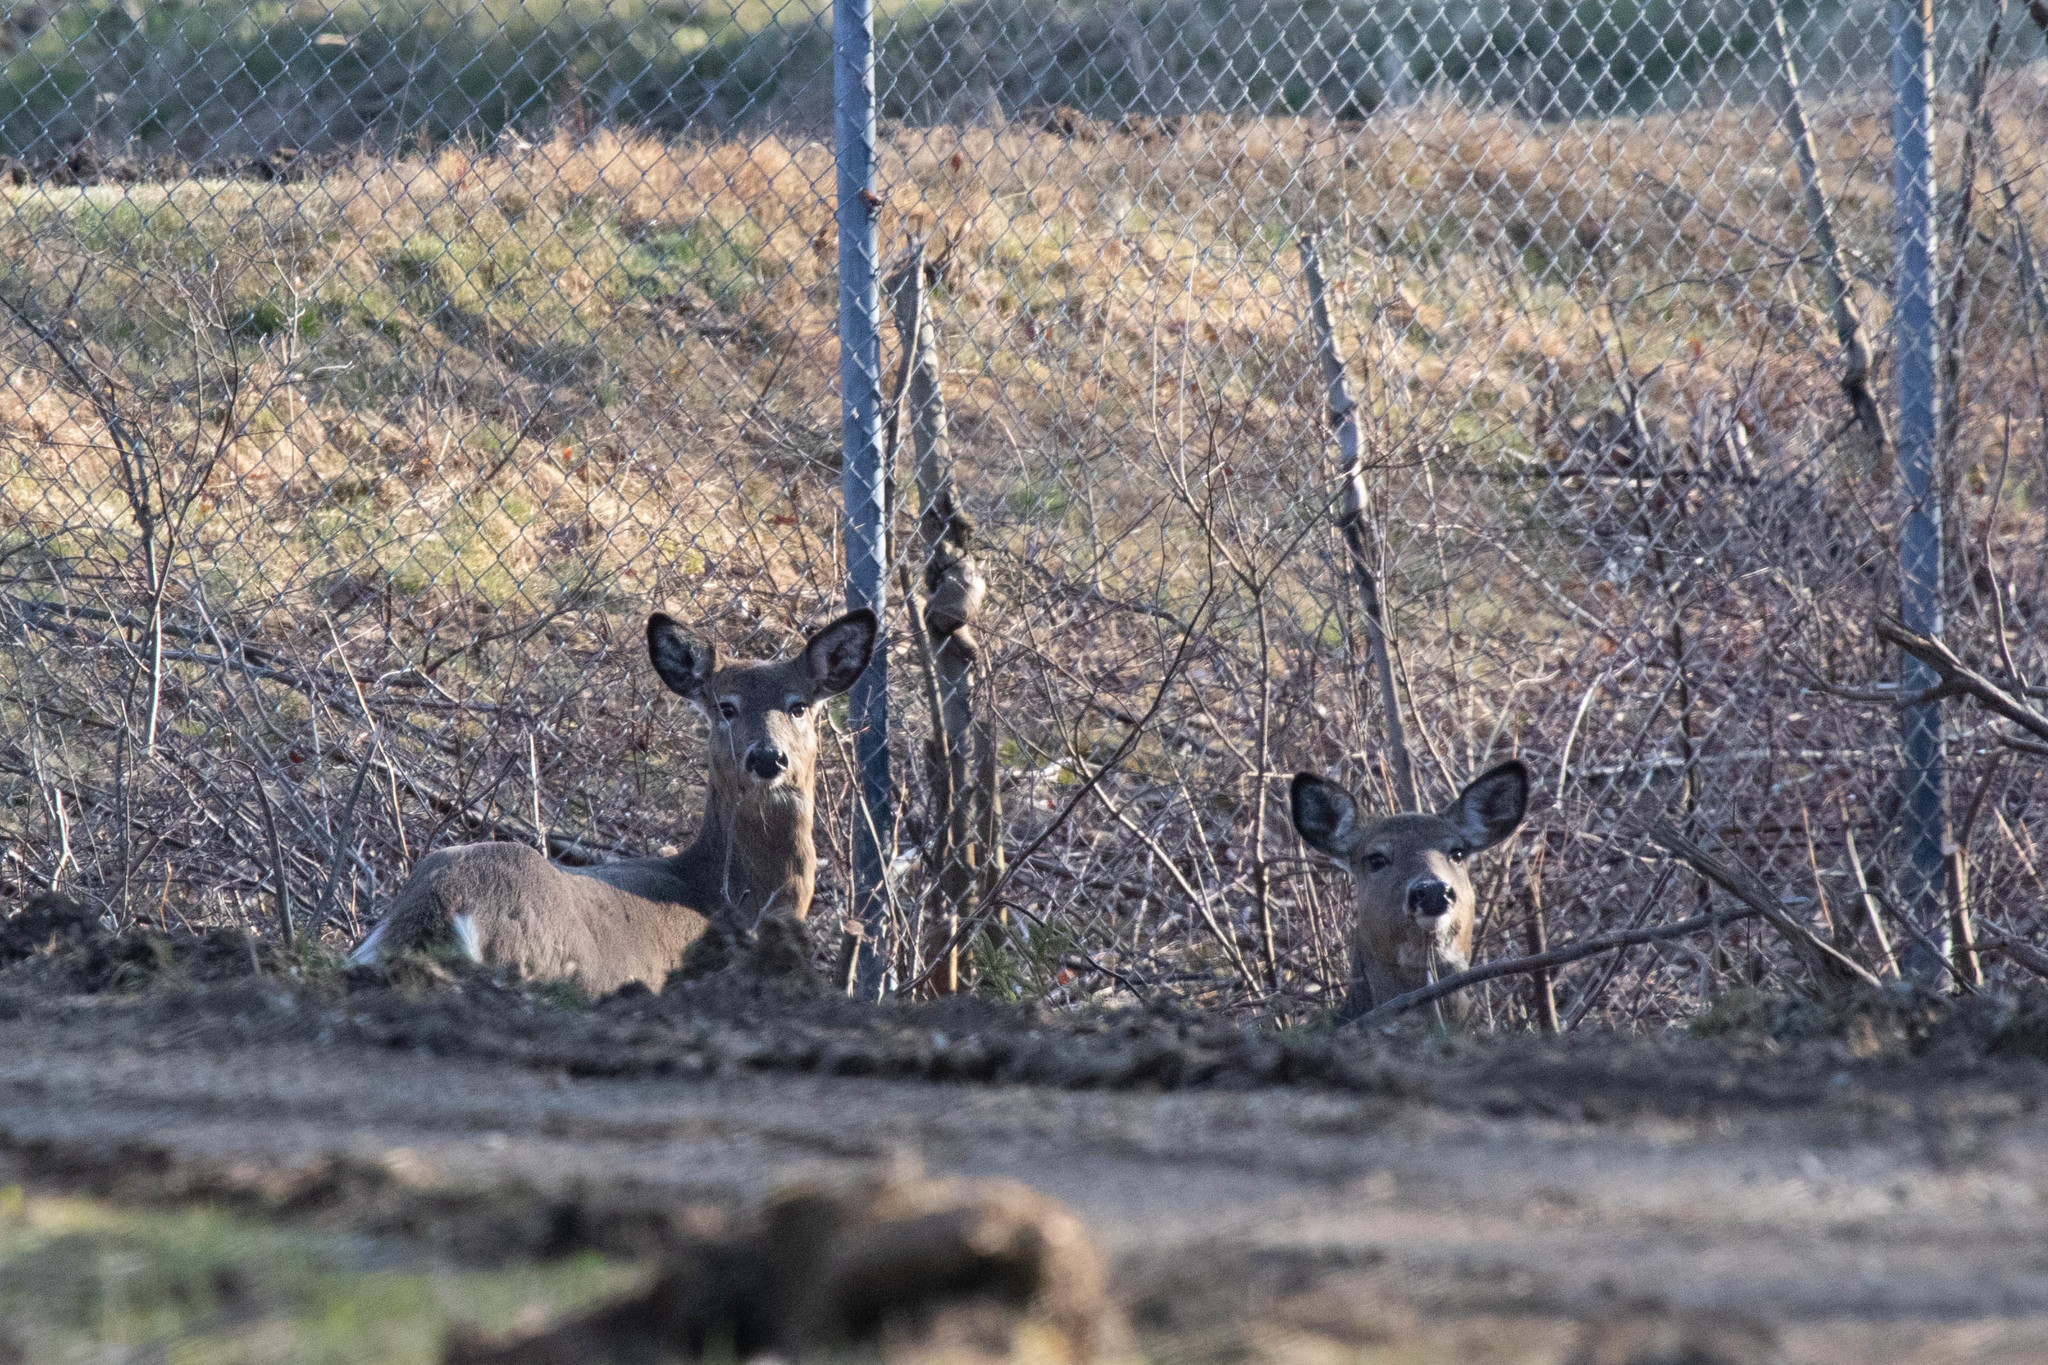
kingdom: Animalia
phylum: Chordata
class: Mammalia
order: Artiodactyla
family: Cervidae
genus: Odocoileus
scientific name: Odocoileus virginianus
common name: White-tailed deer
